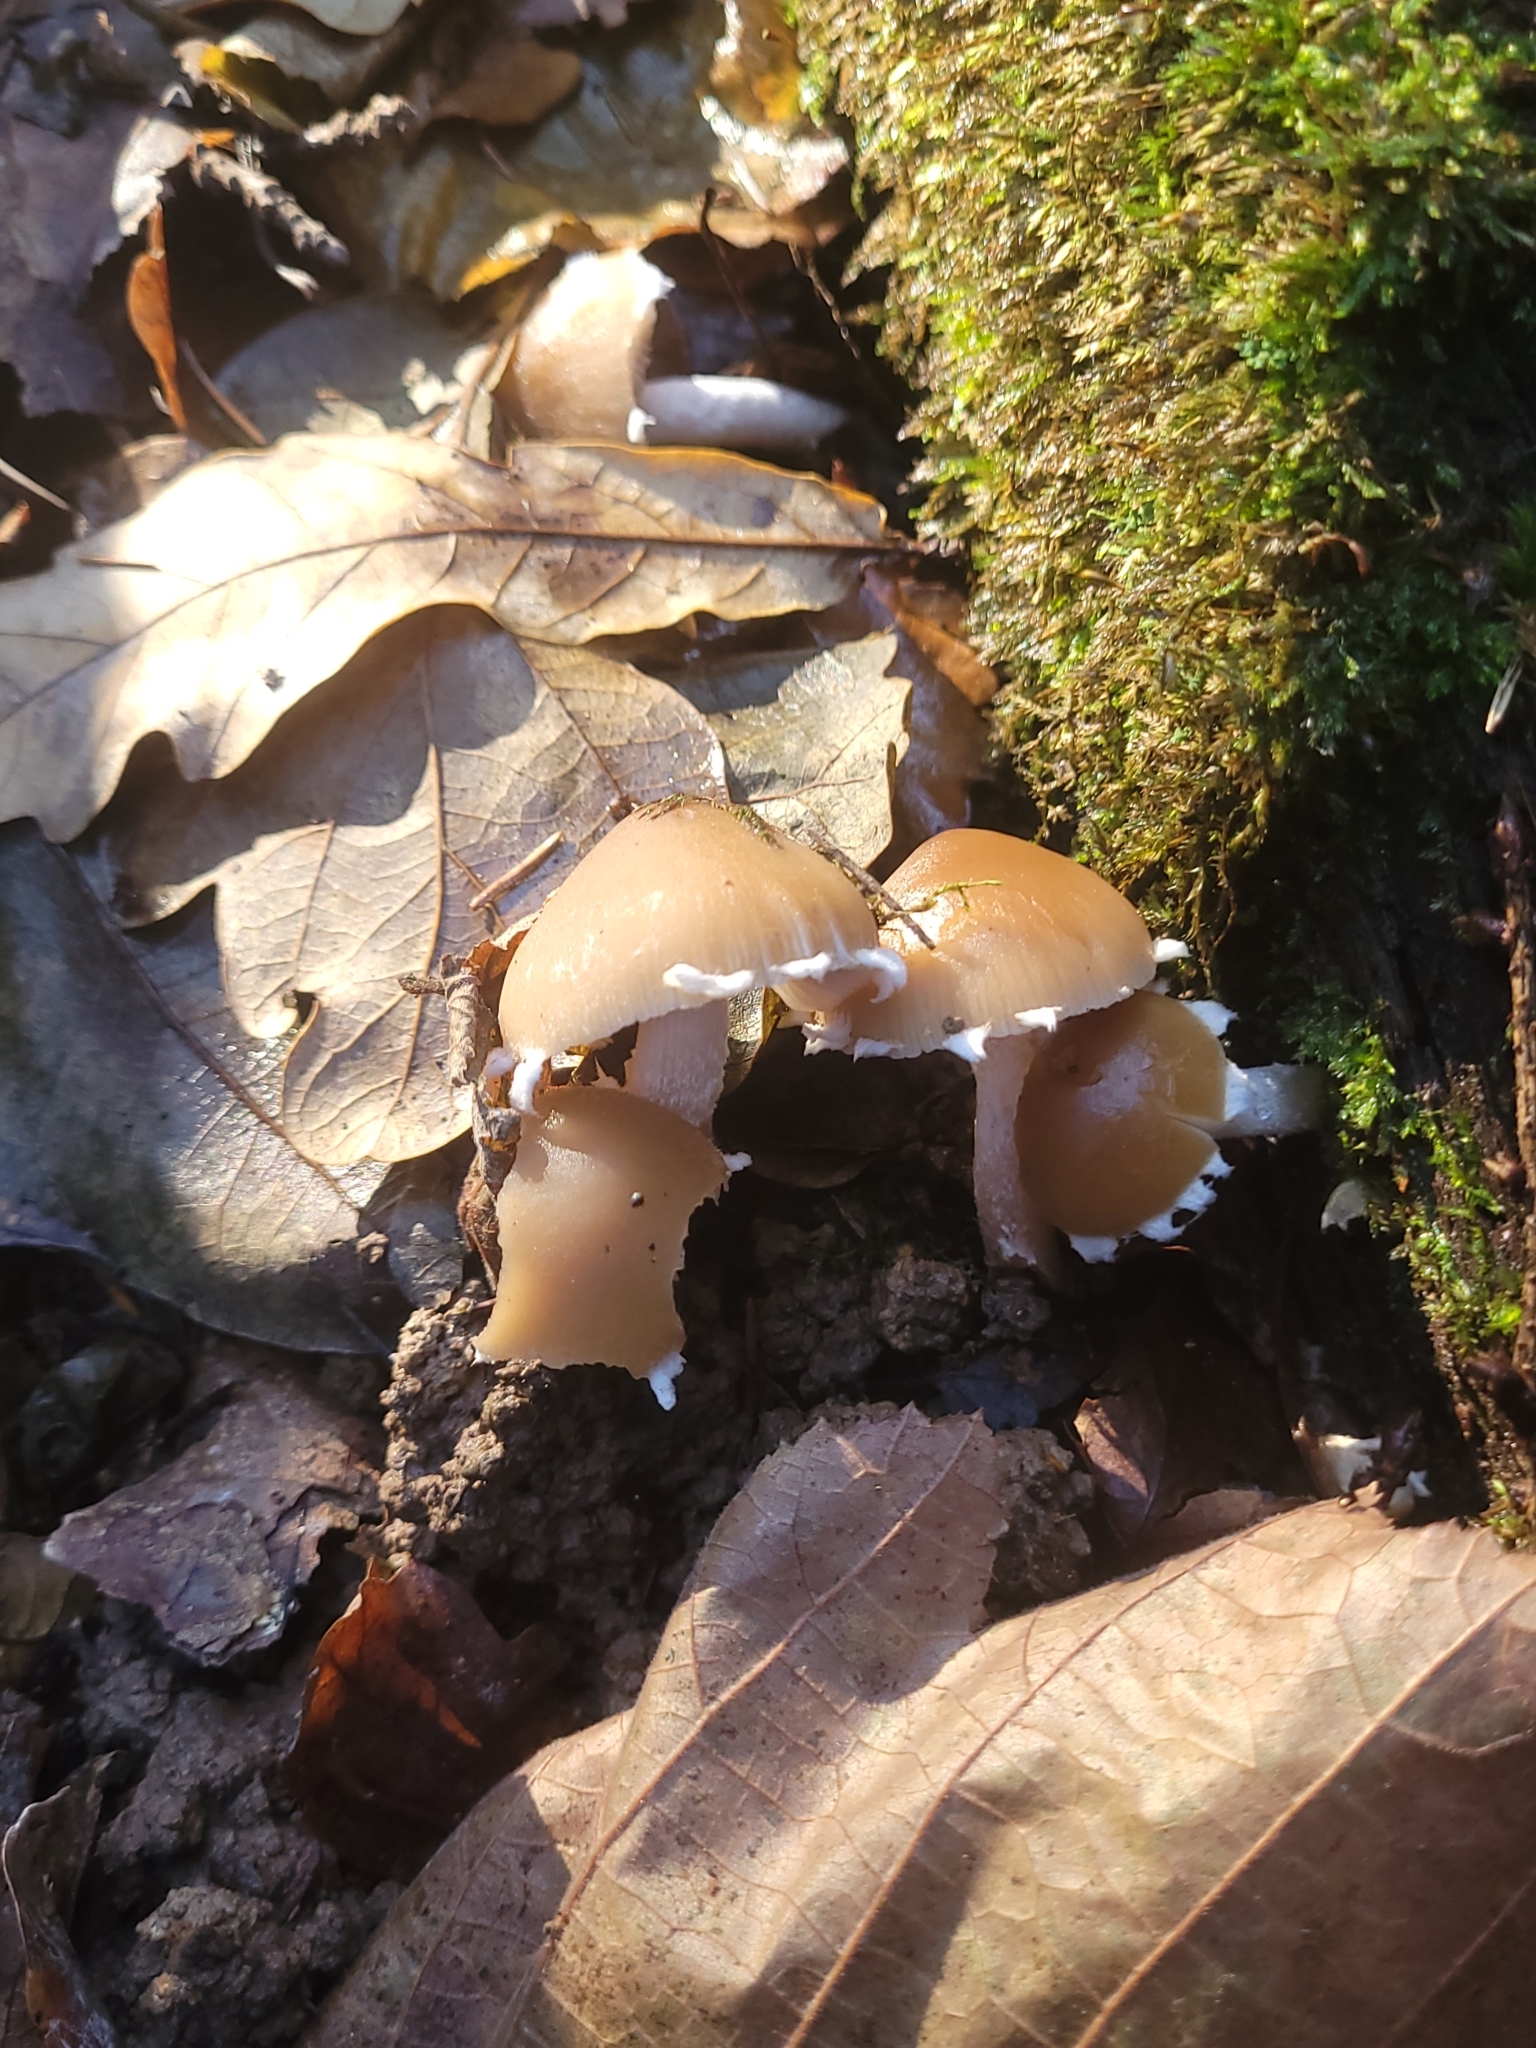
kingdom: Fungi
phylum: Basidiomycota
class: Agaricomycetes
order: Agaricales
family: Psathyrellaceae
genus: Candolleomyces
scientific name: Candolleomyces candolleanus
